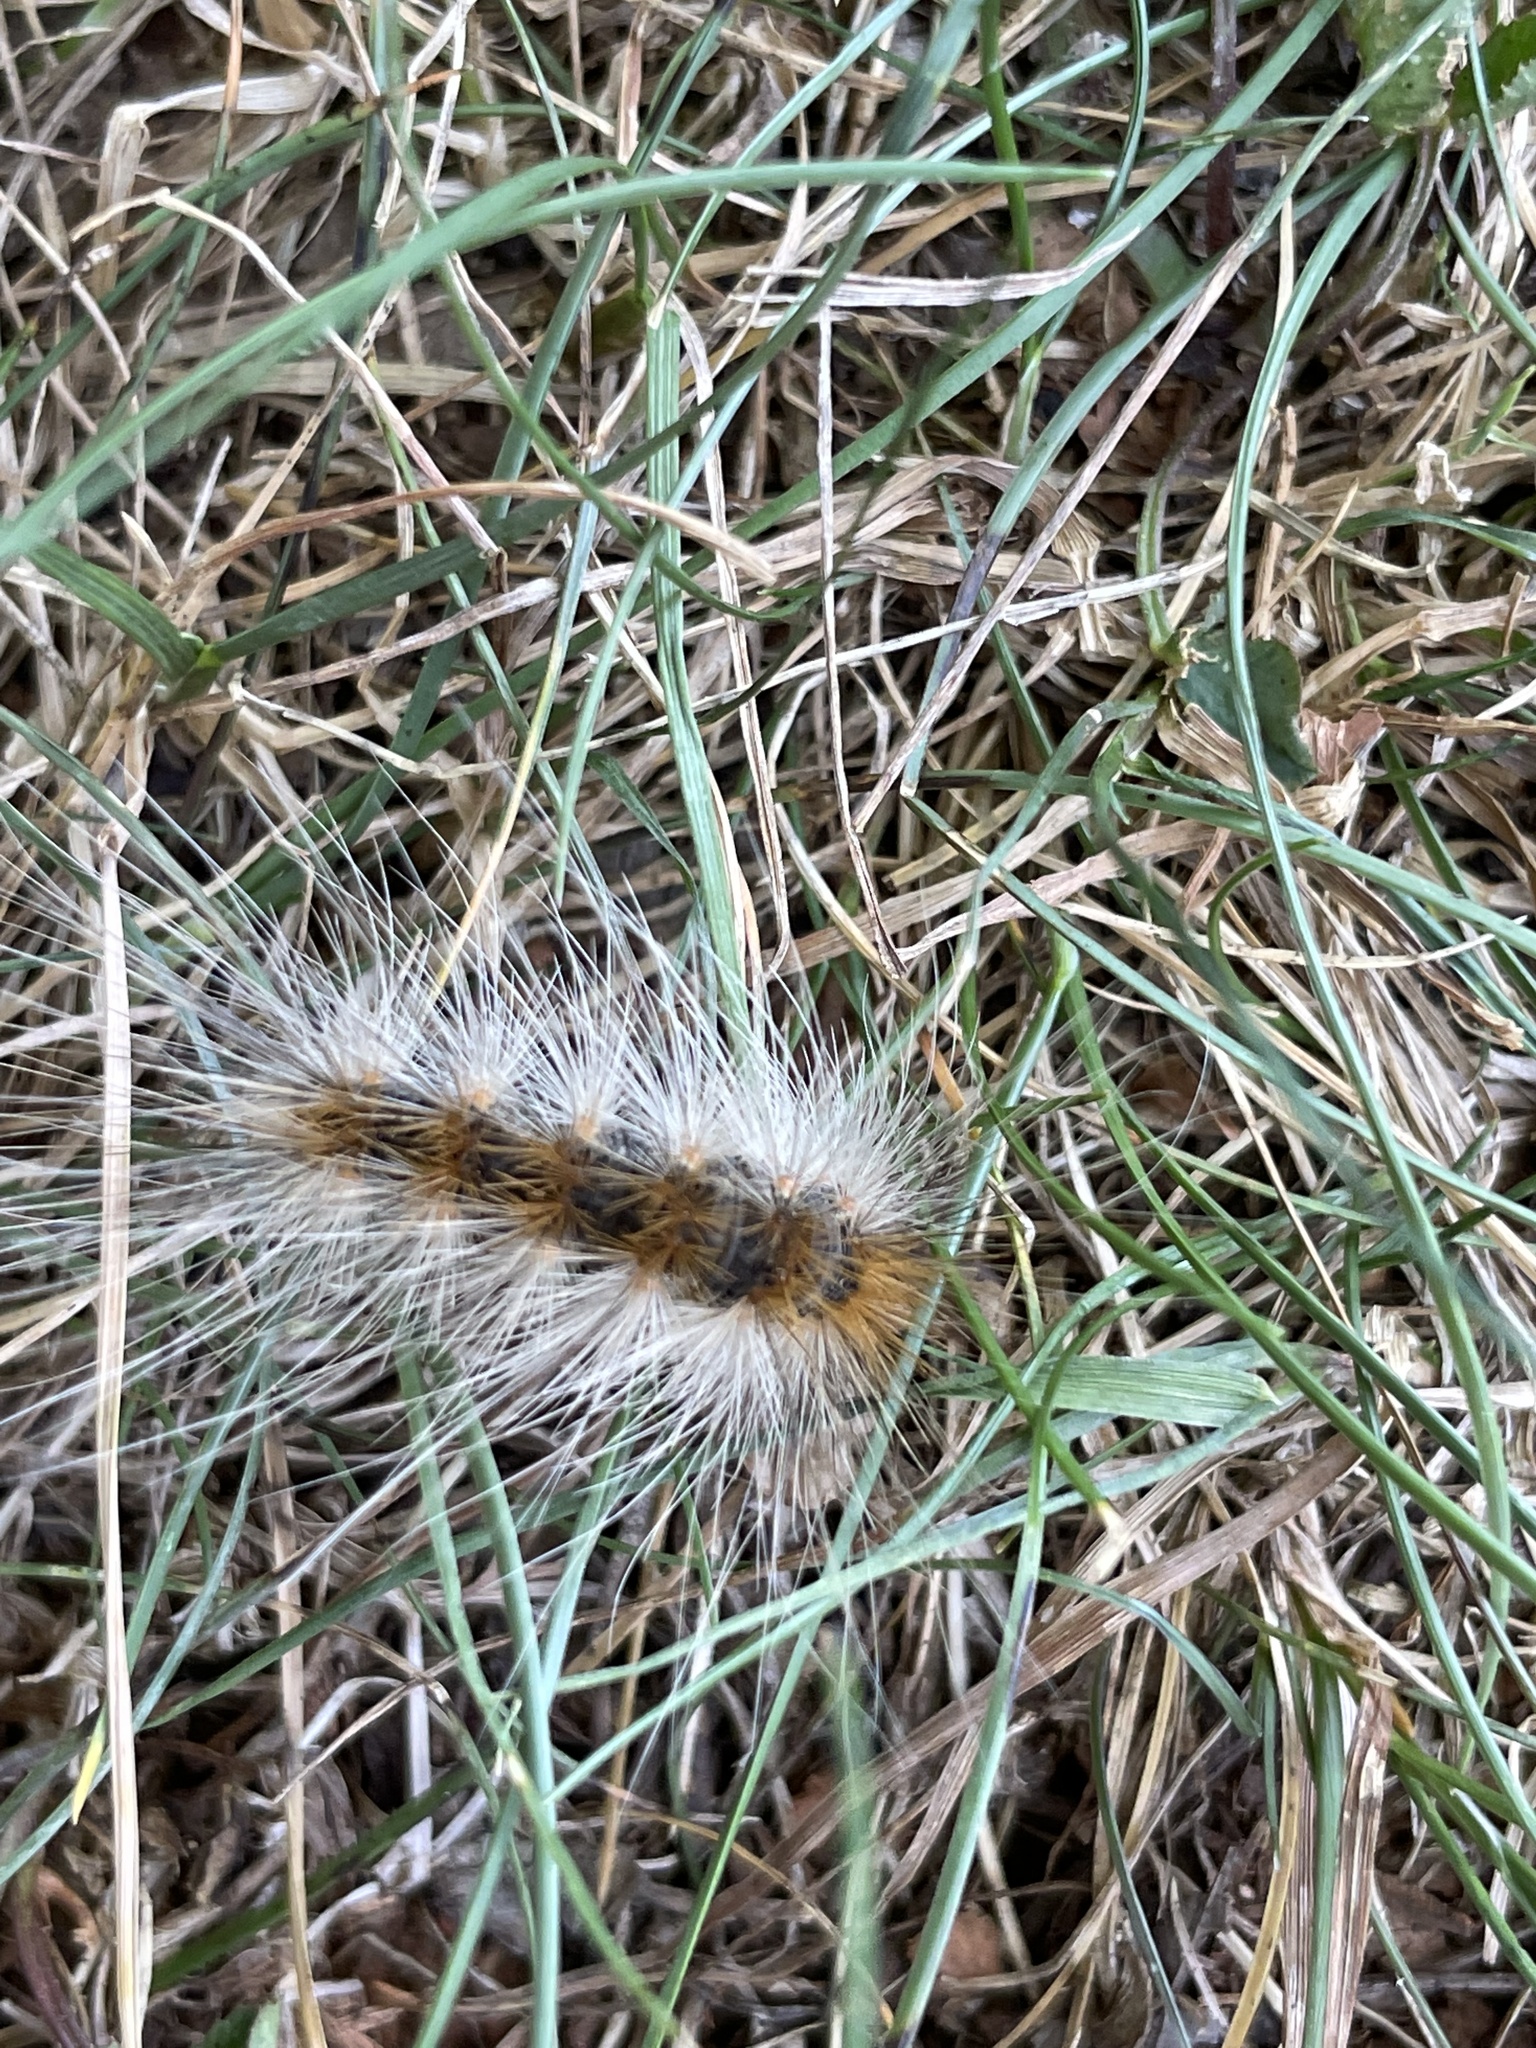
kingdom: Animalia
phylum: Arthropoda
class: Insecta
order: Lepidoptera
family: Erebidae
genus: Hyphantria
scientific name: Hyphantria cunea
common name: American white moth
